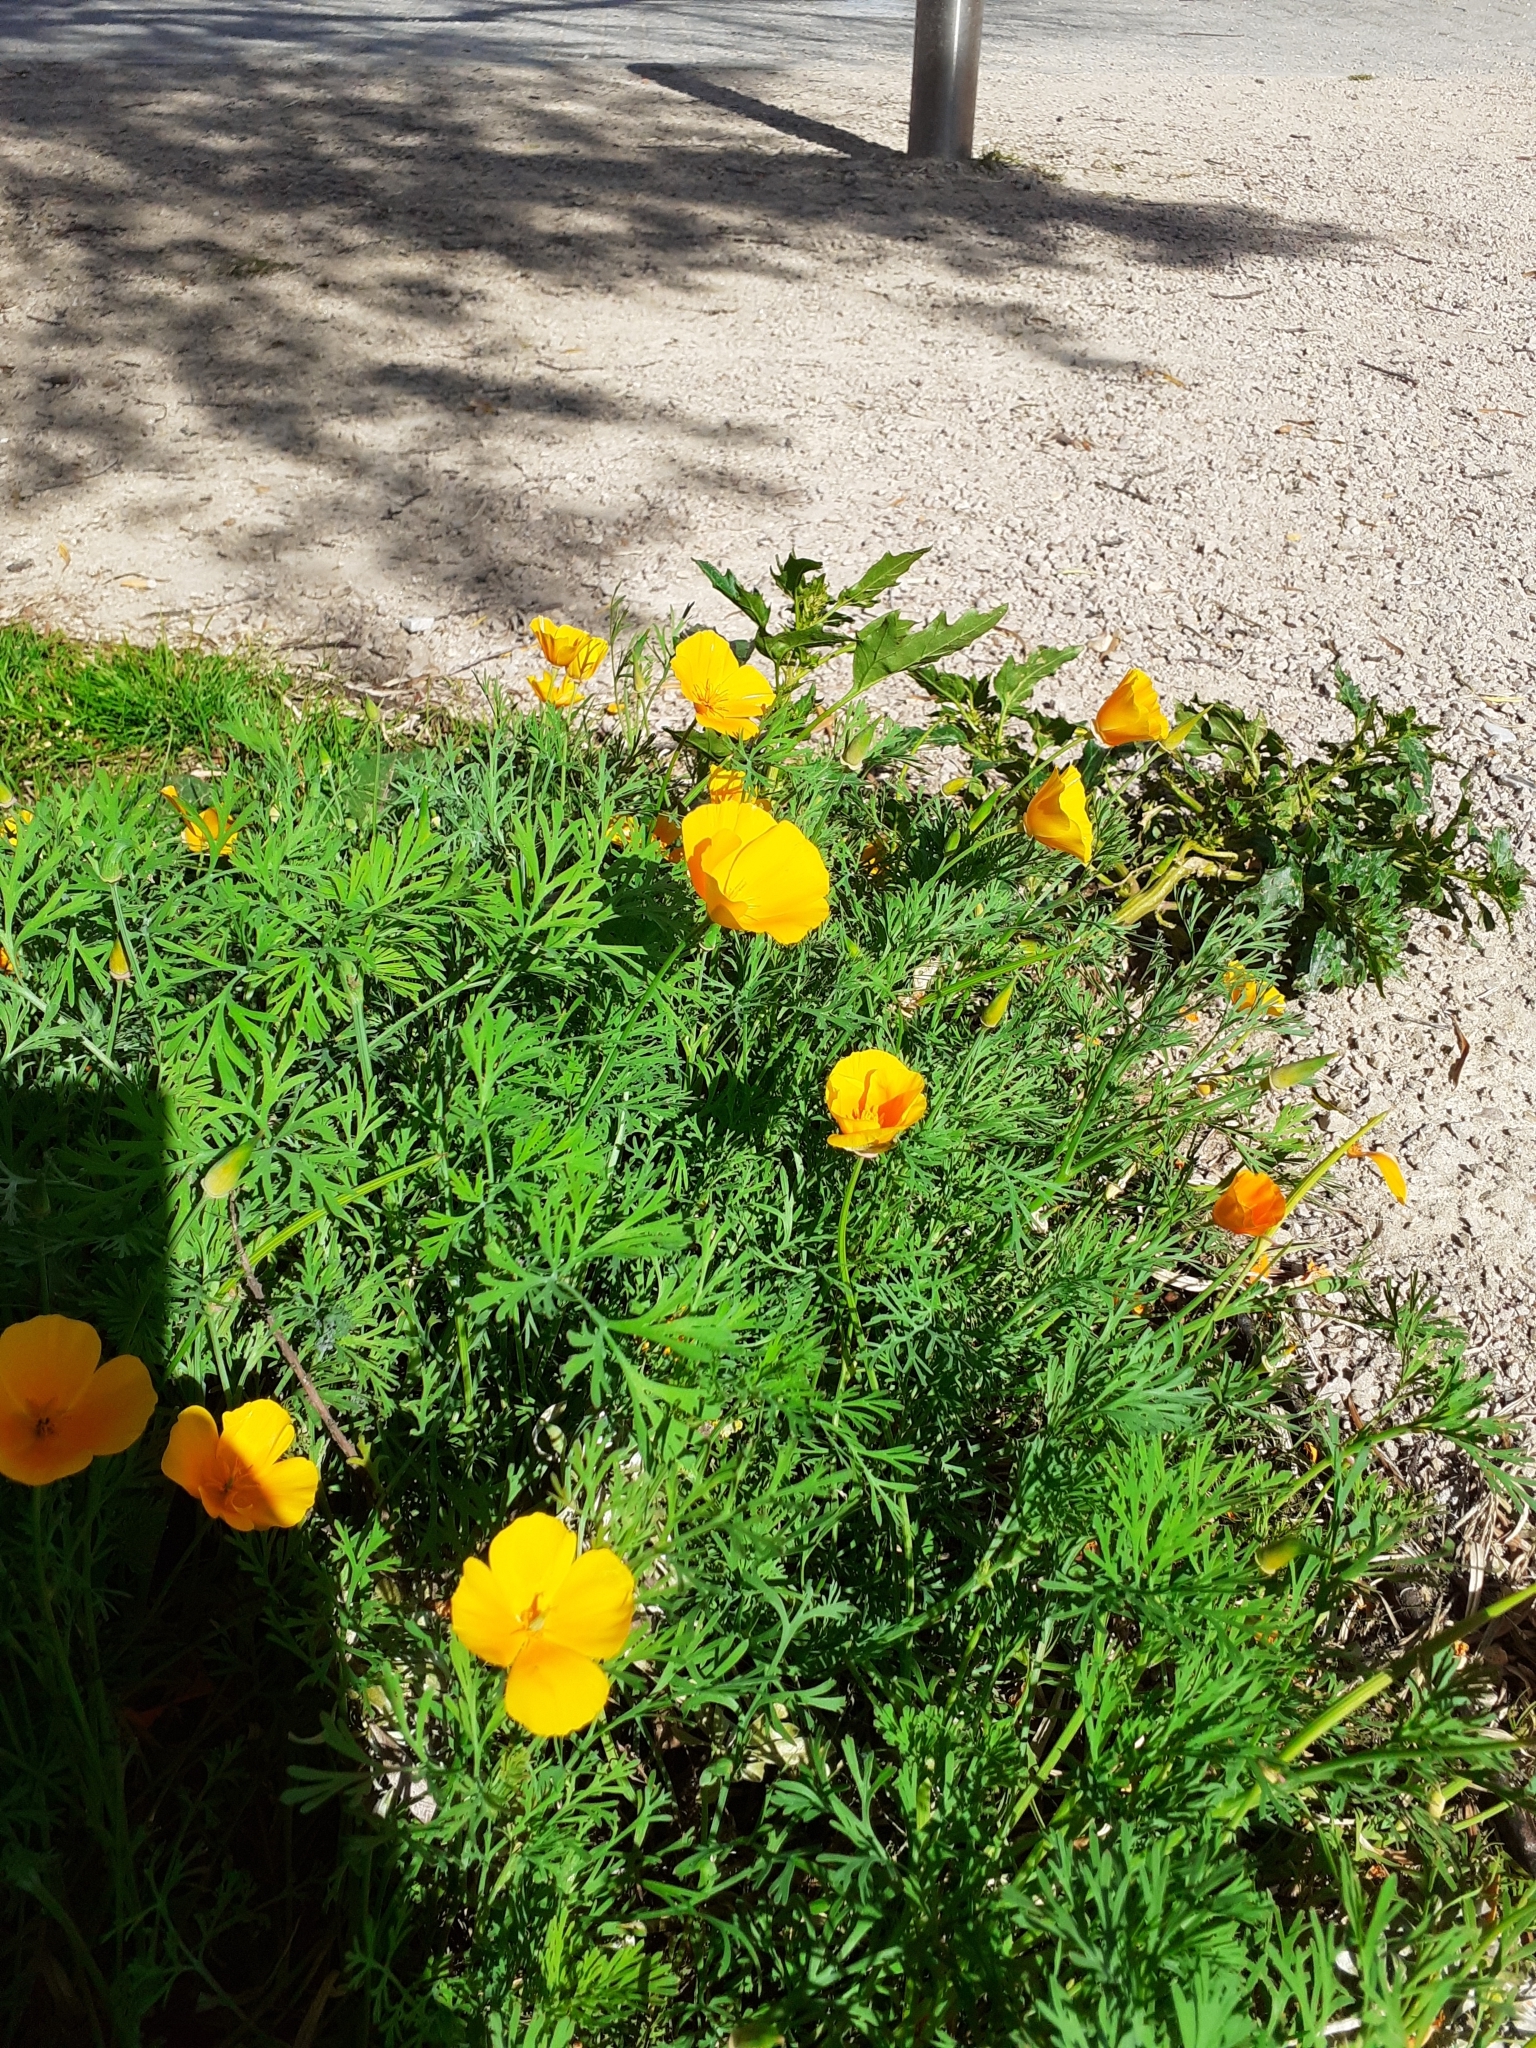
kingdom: Plantae
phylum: Tracheophyta
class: Magnoliopsida
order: Ranunculales
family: Papaveraceae
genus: Eschscholzia
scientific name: Eschscholzia californica
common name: California poppy
